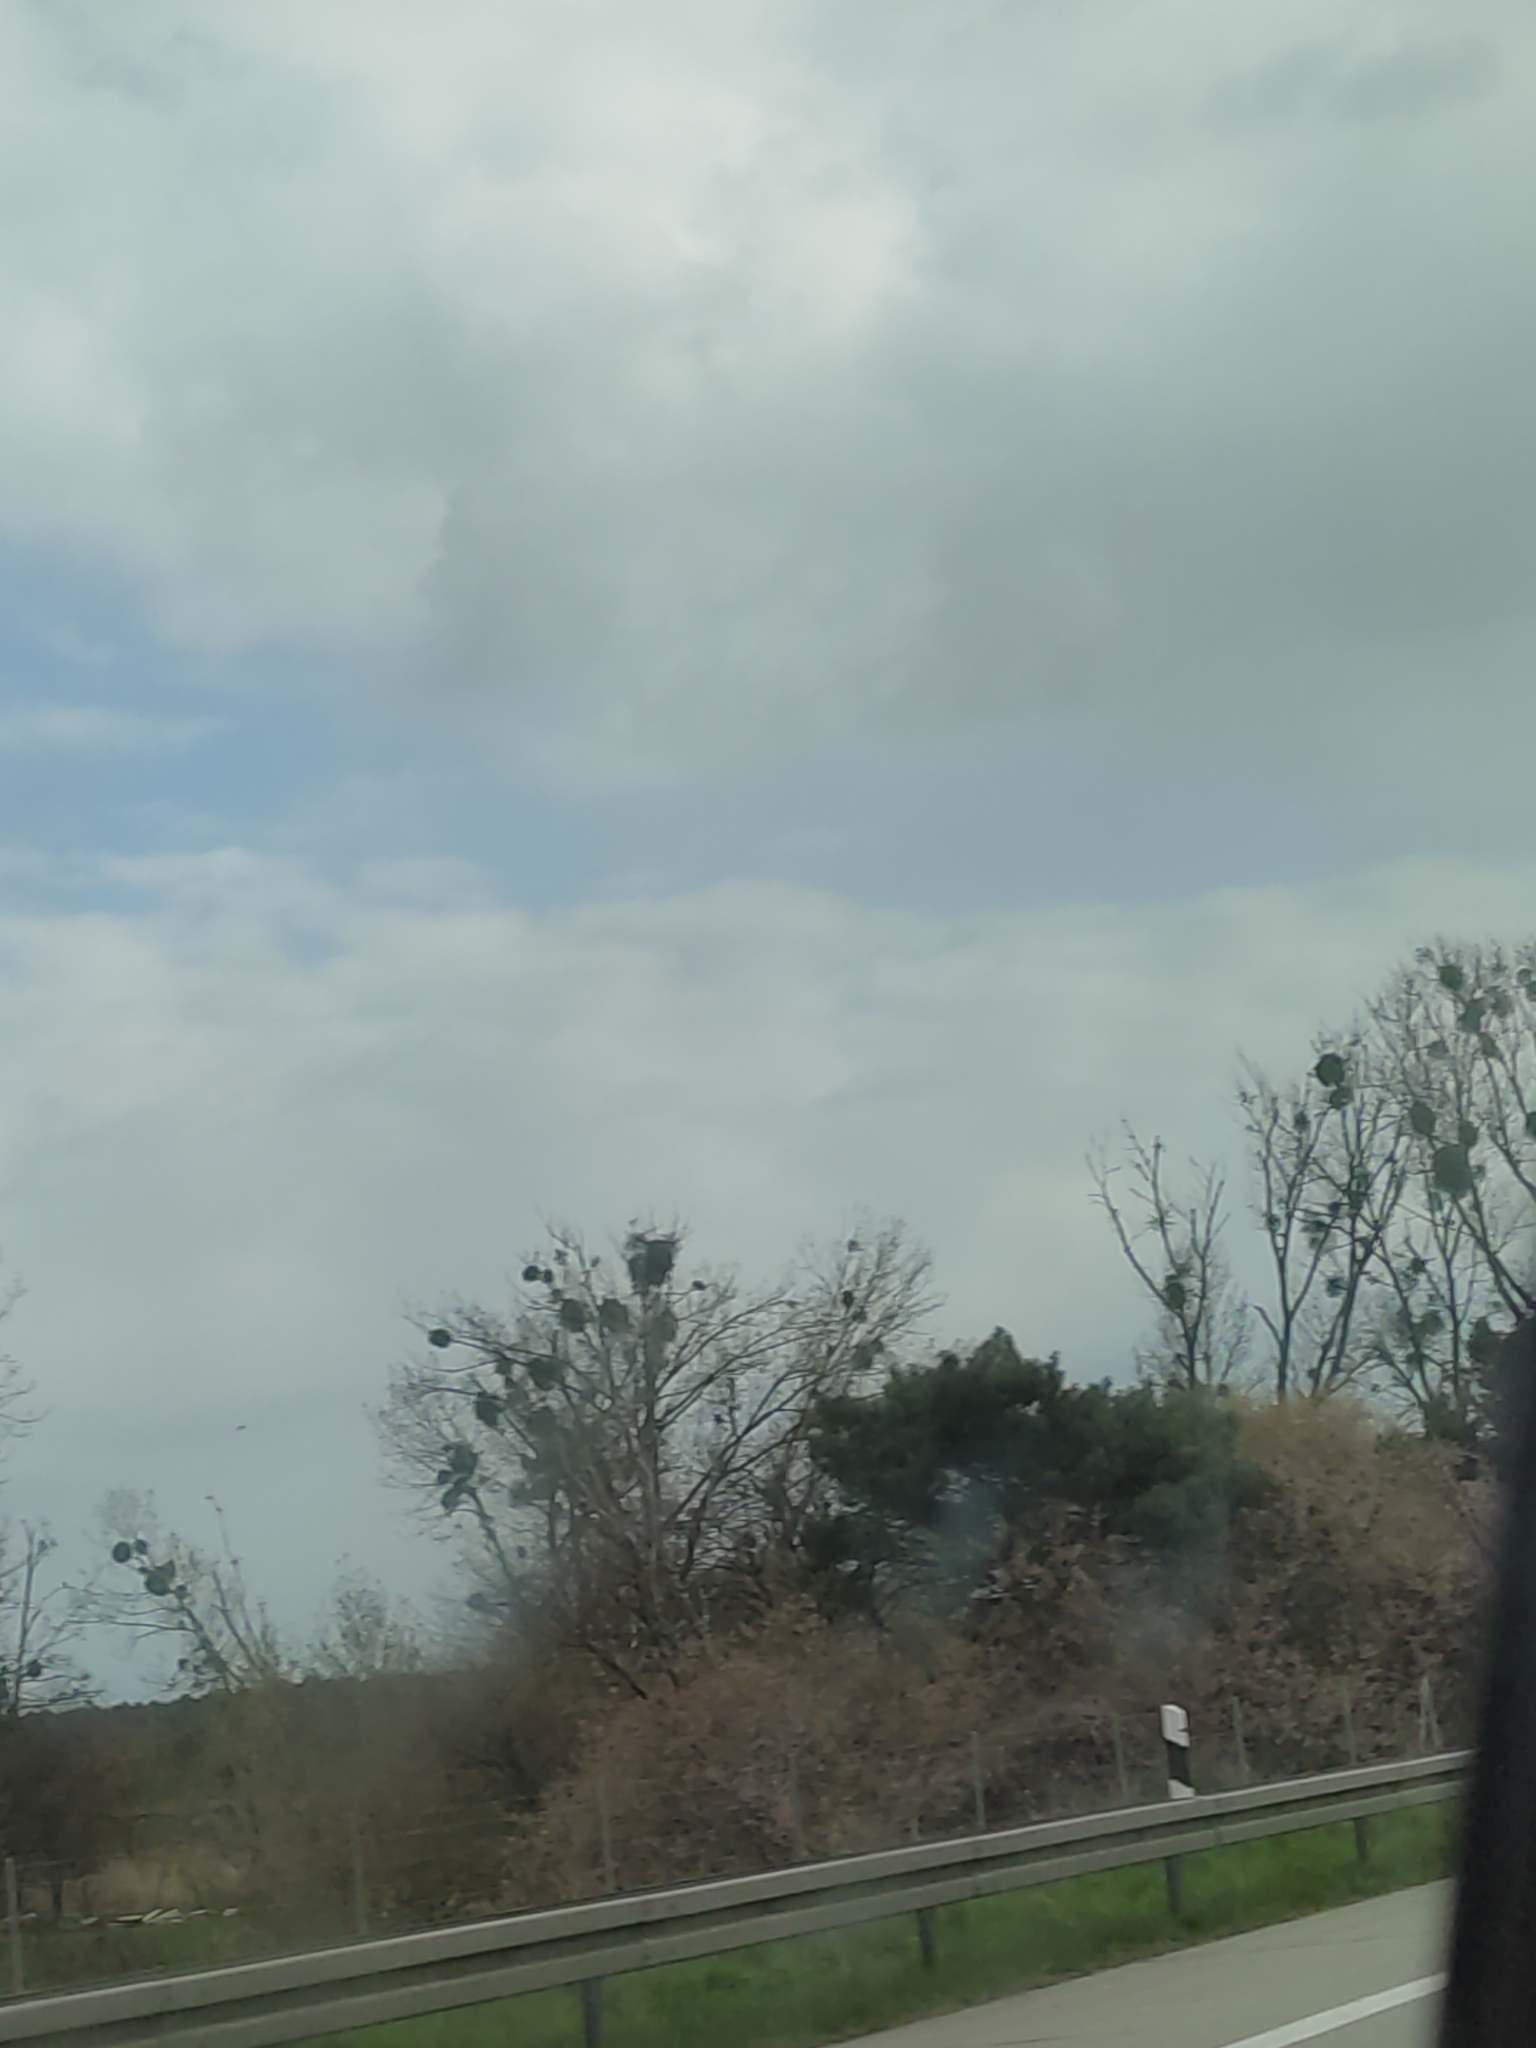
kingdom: Plantae
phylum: Tracheophyta
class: Magnoliopsida
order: Santalales
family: Viscaceae
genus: Viscum
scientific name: Viscum album
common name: Mistletoe
